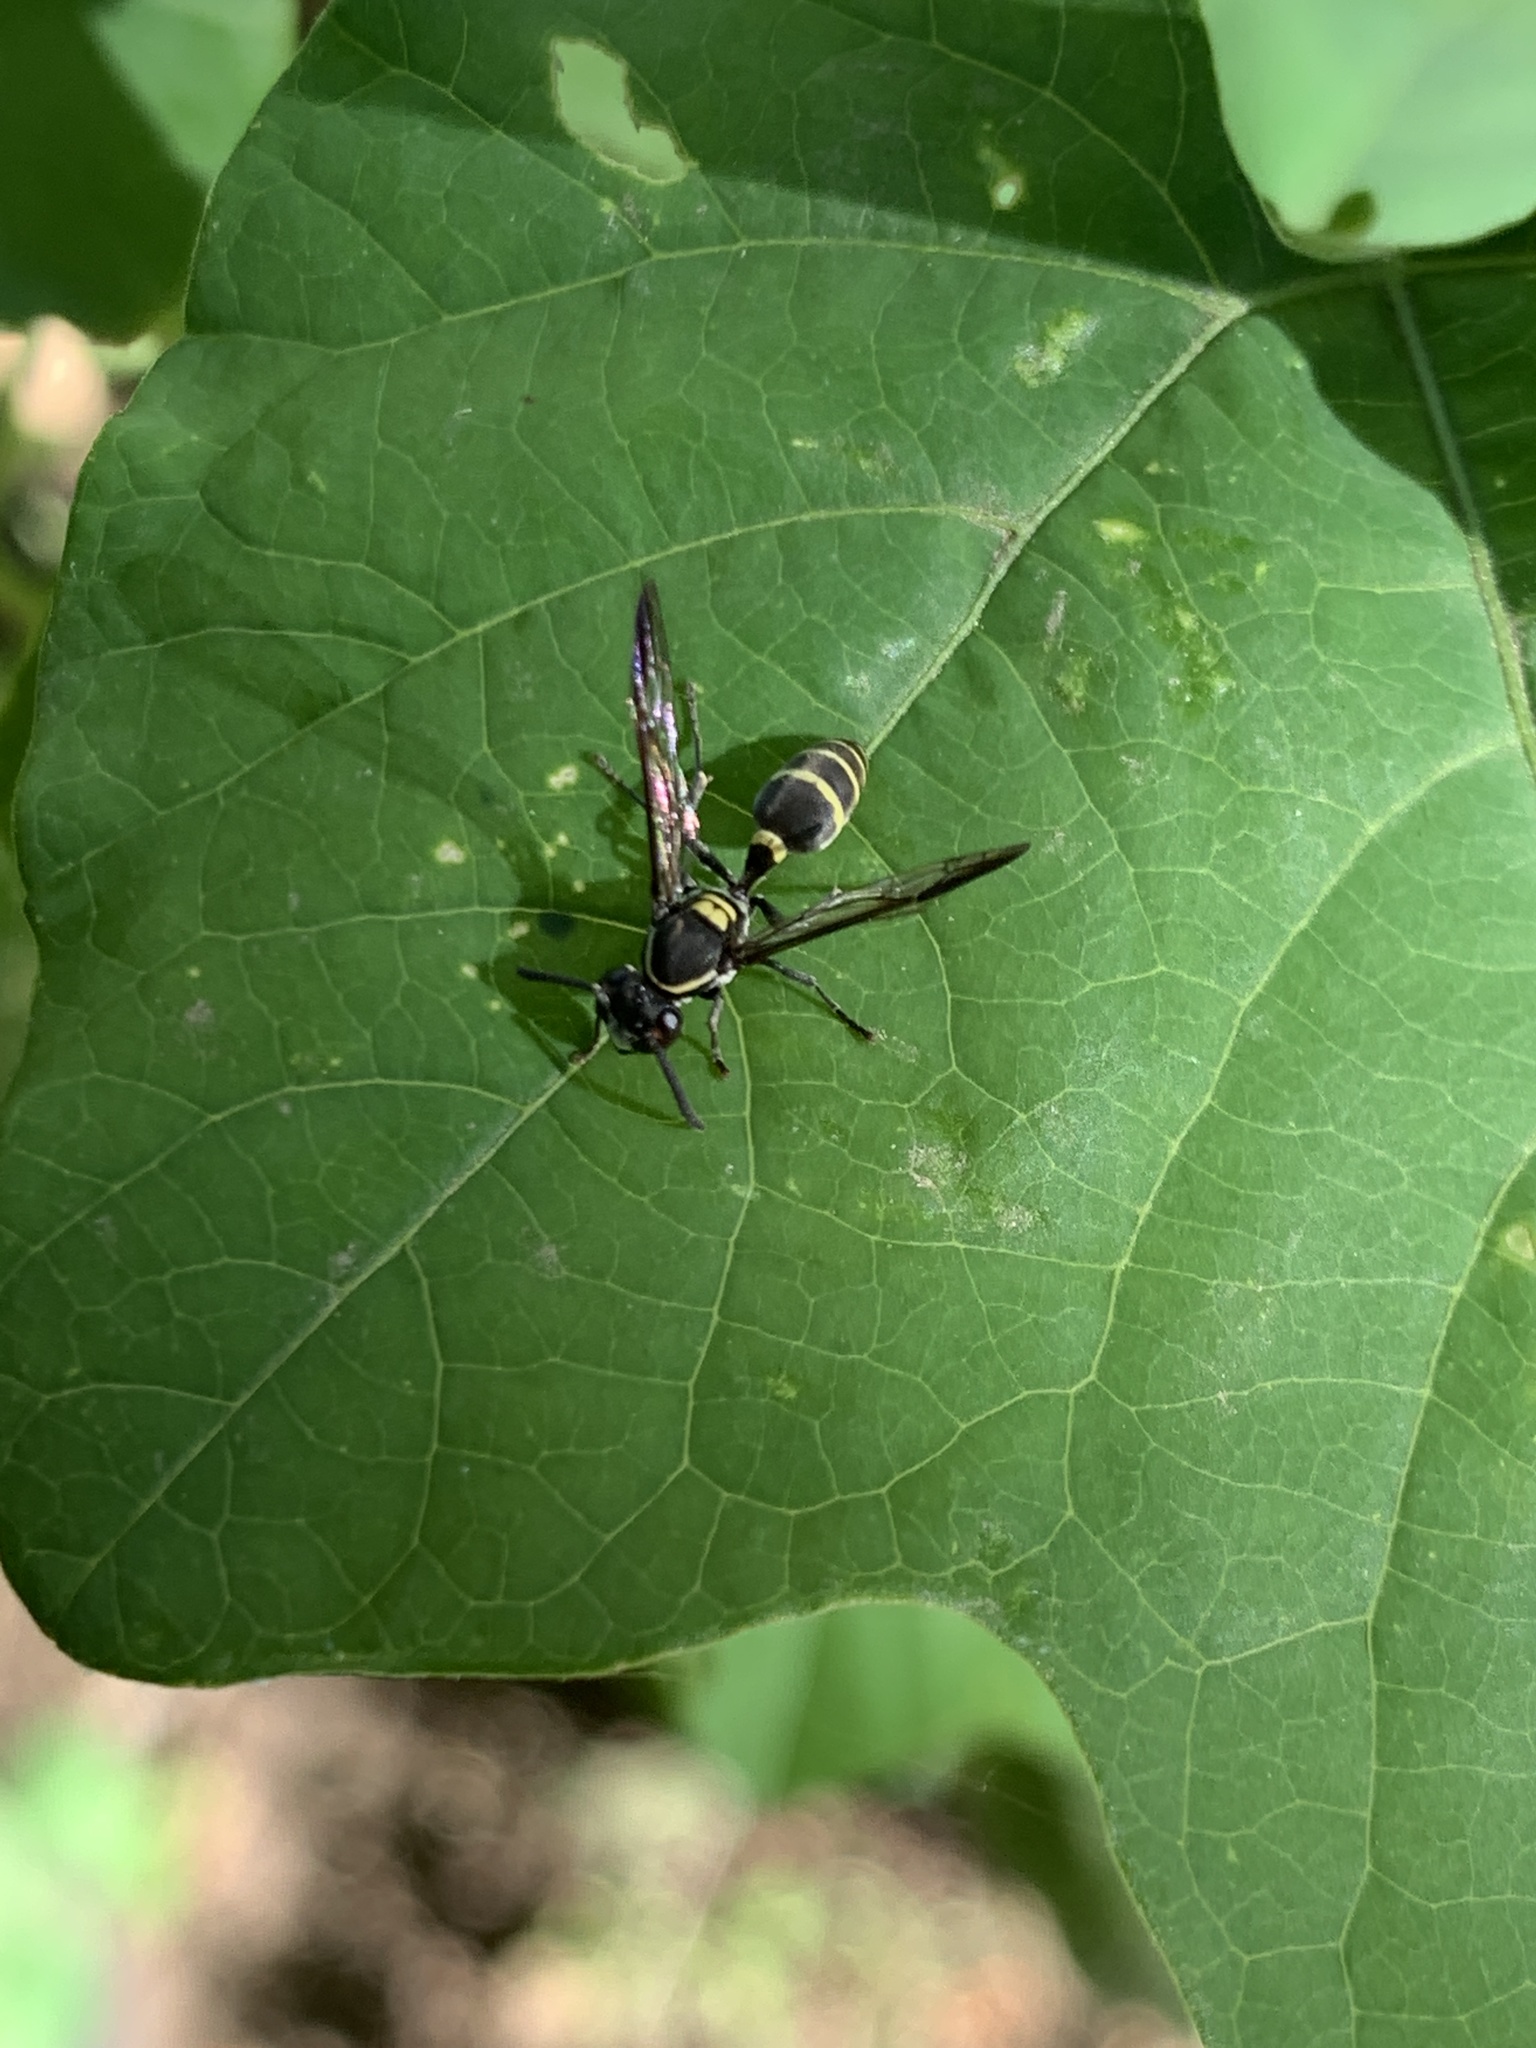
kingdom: Animalia
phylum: Arthropoda
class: Insecta
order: Hymenoptera
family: Eumenidae
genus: Polybia
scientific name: Polybia occidentalis
